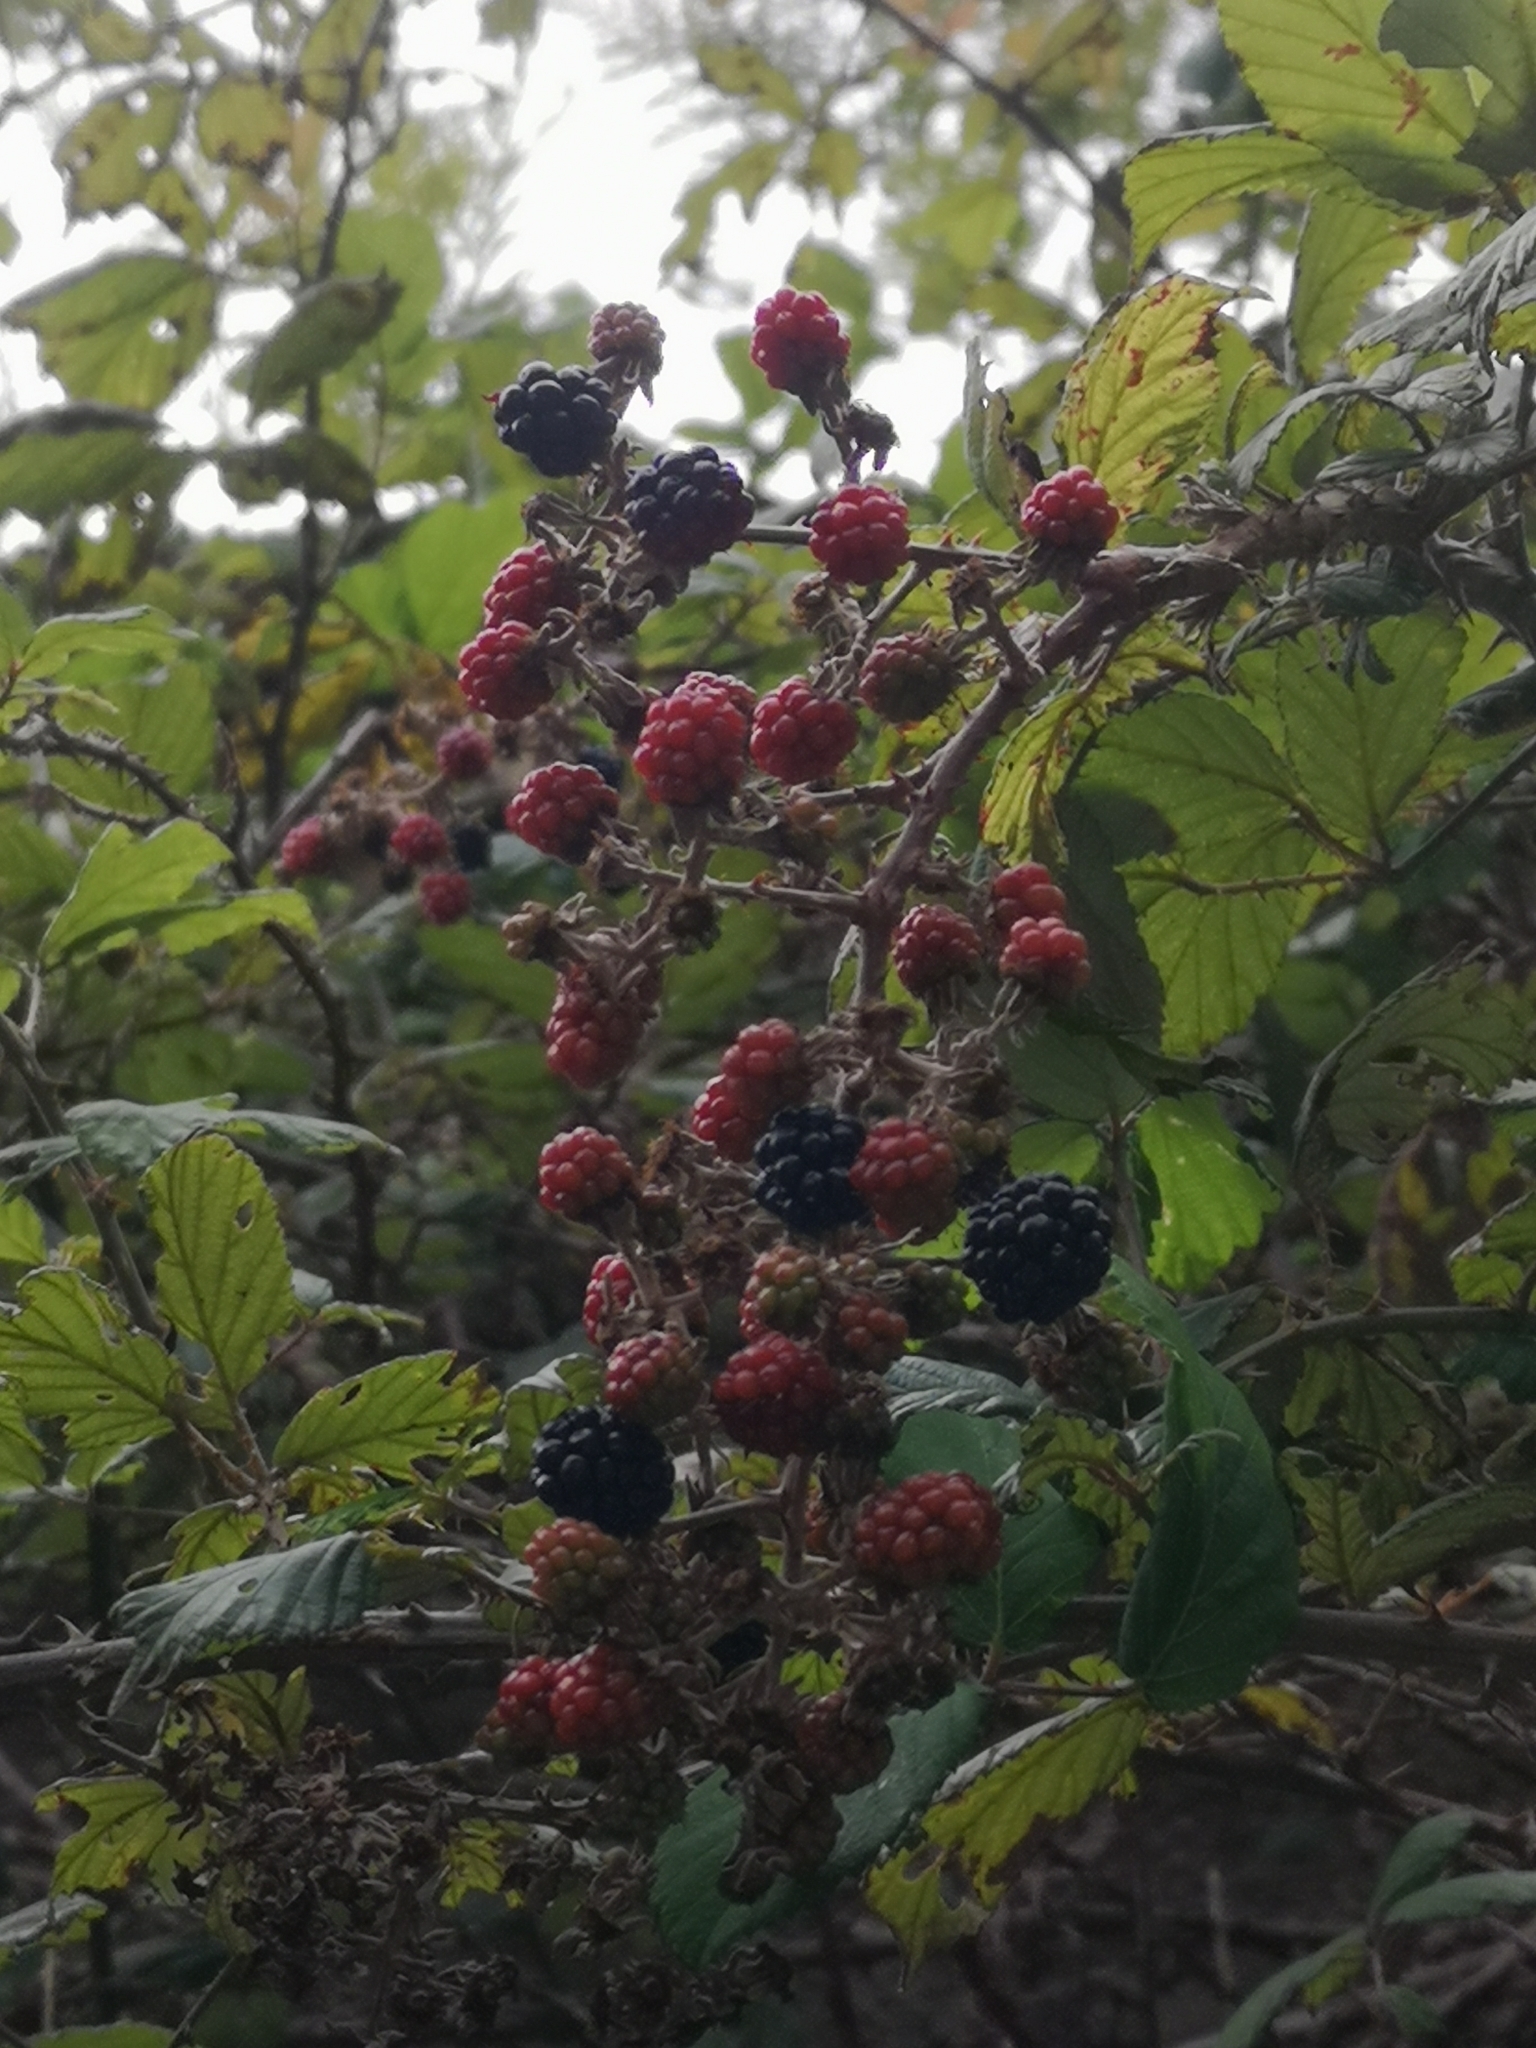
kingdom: Plantae
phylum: Tracheophyta
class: Magnoliopsida
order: Rosales
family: Rosaceae
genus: Rubus
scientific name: Rubus ulmifolius
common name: Elmleaf blackberry
